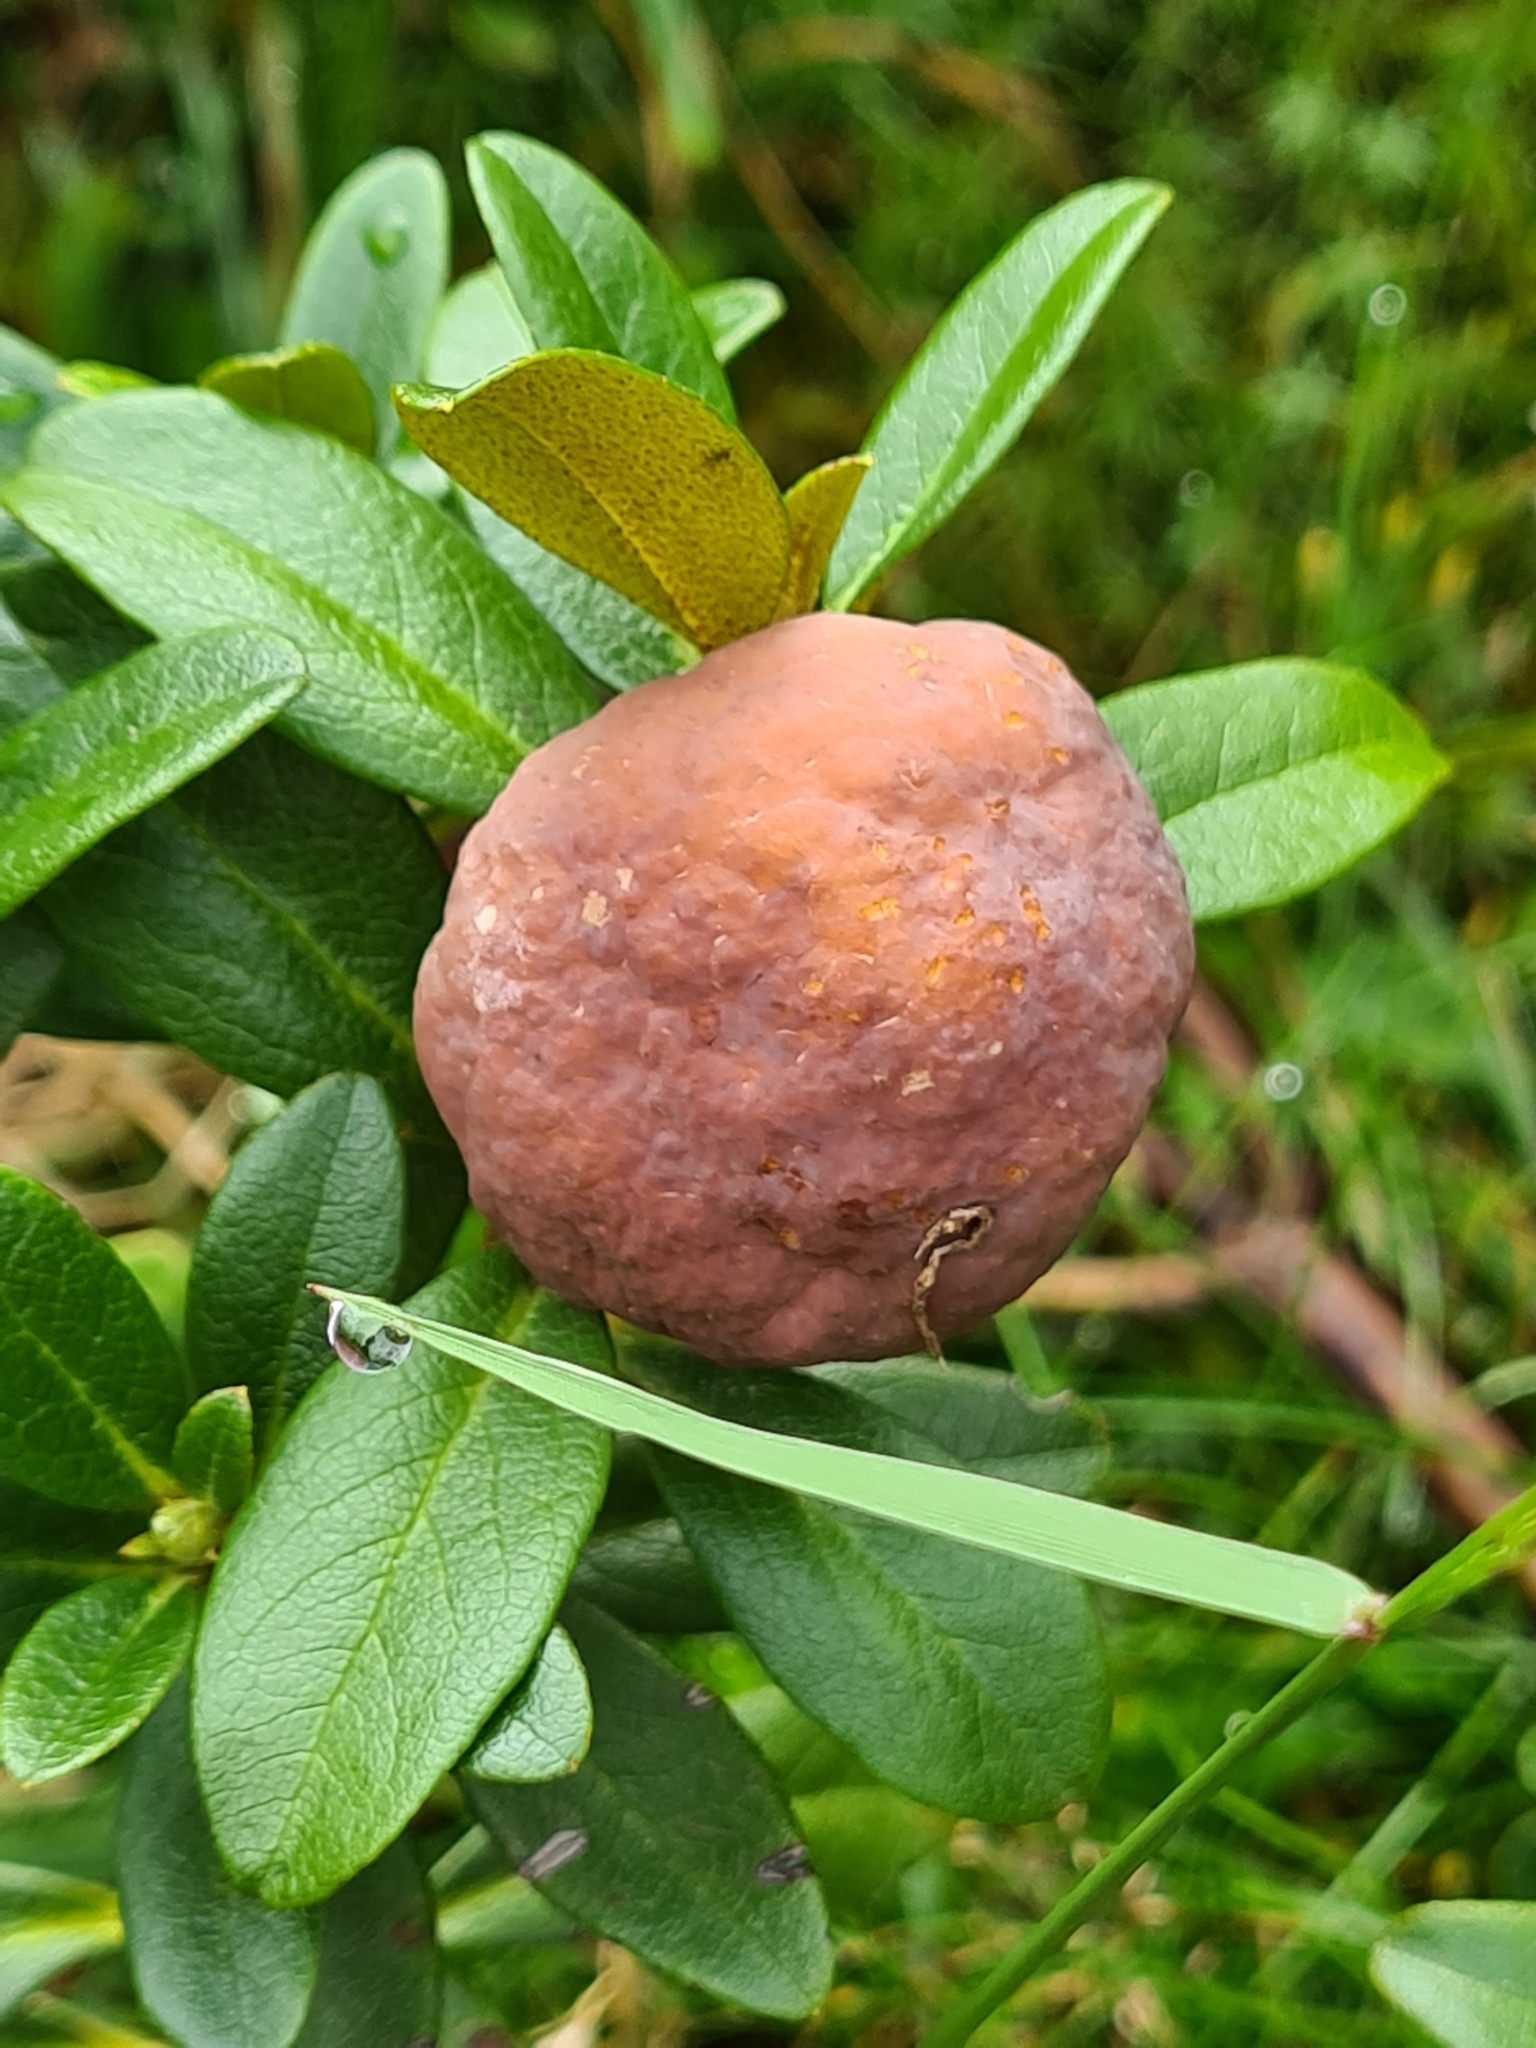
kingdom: Fungi
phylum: Basidiomycota
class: Exobasidiomycetes
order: Exobasidiales
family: Exobasidiaceae
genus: Exobasidium
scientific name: Exobasidium rhododendri
